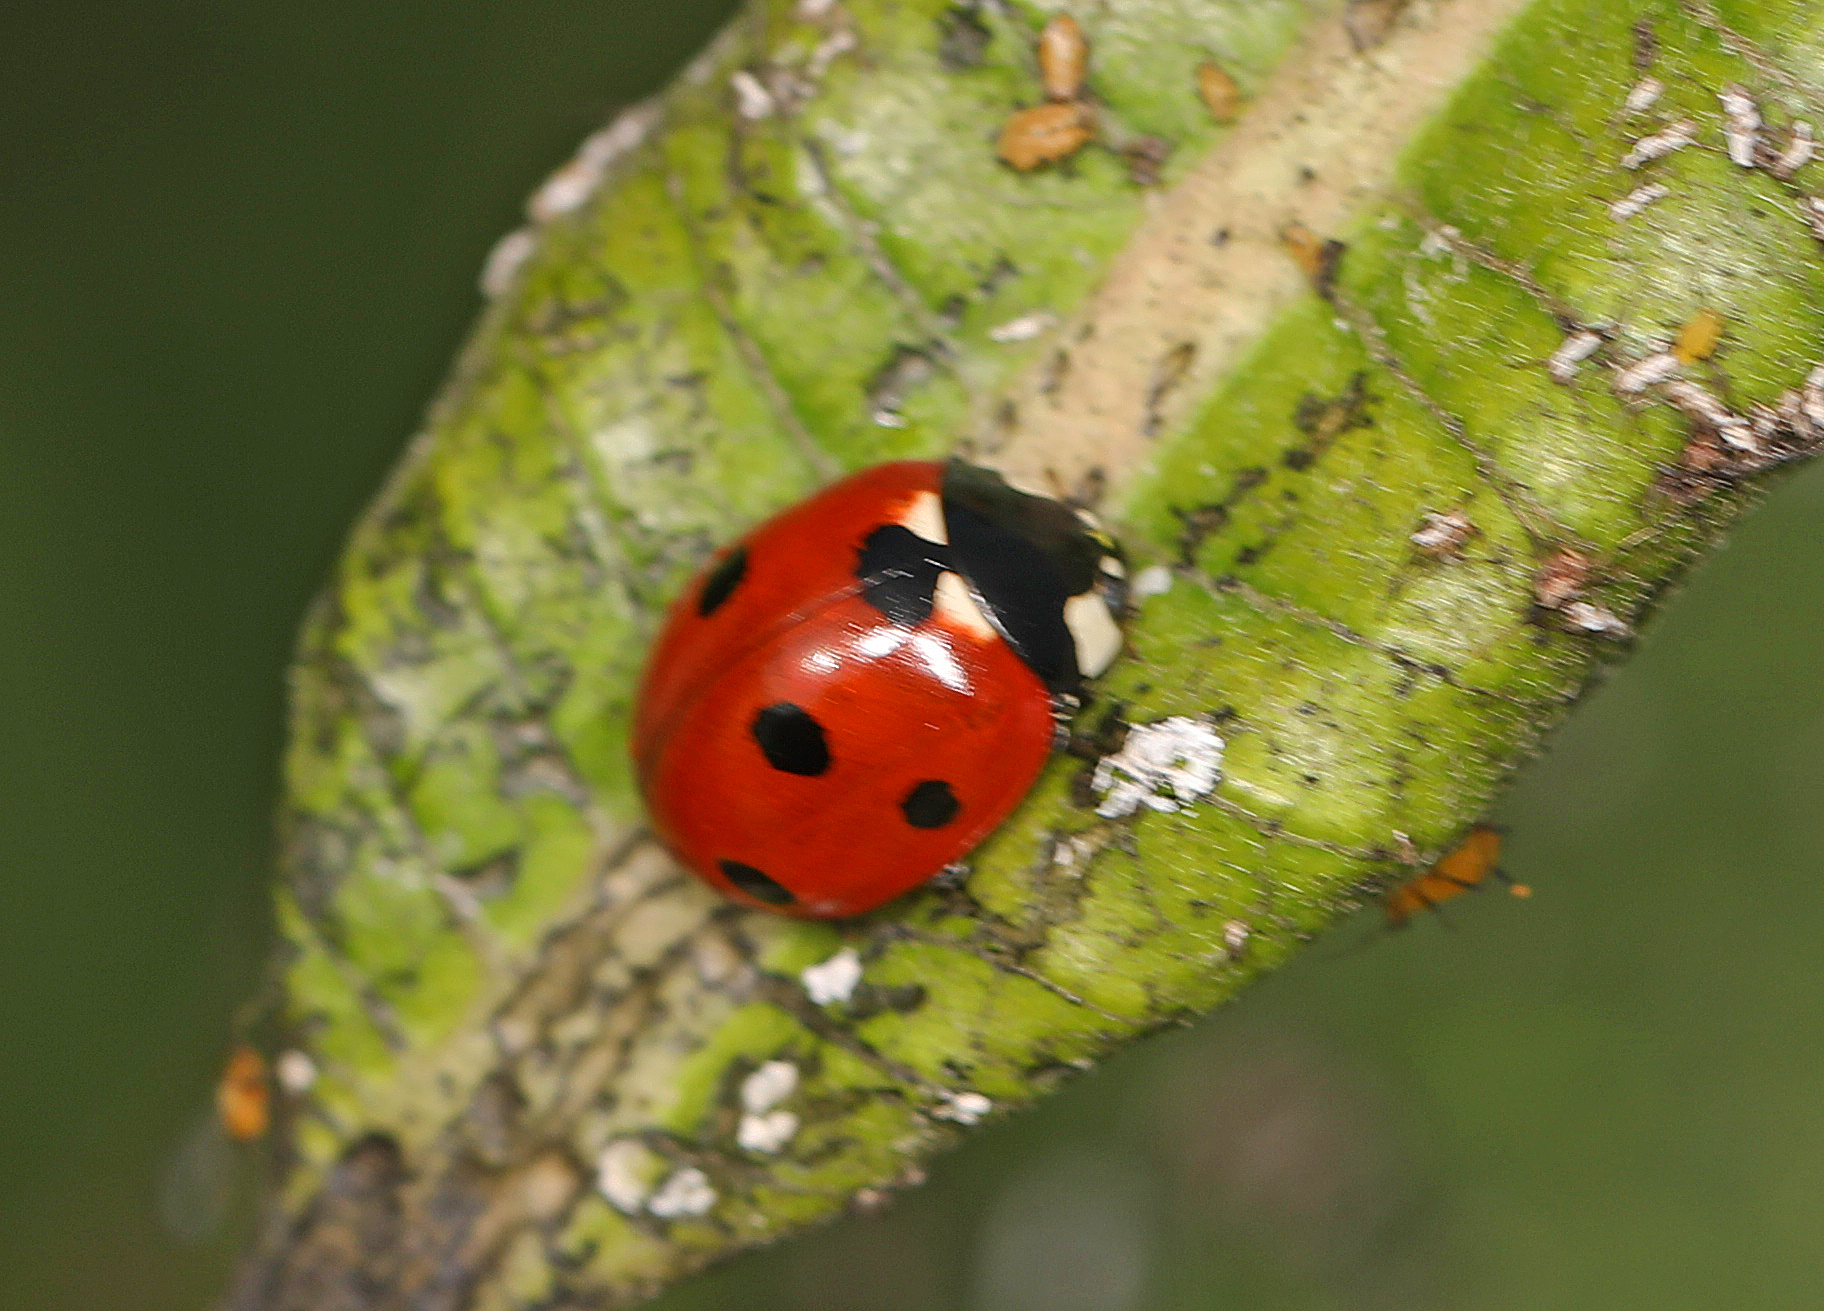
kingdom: Animalia
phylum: Arthropoda
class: Insecta
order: Coleoptera
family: Coccinellidae
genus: Coccinella
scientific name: Coccinella septempunctata
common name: Sevenspotted lady beetle
